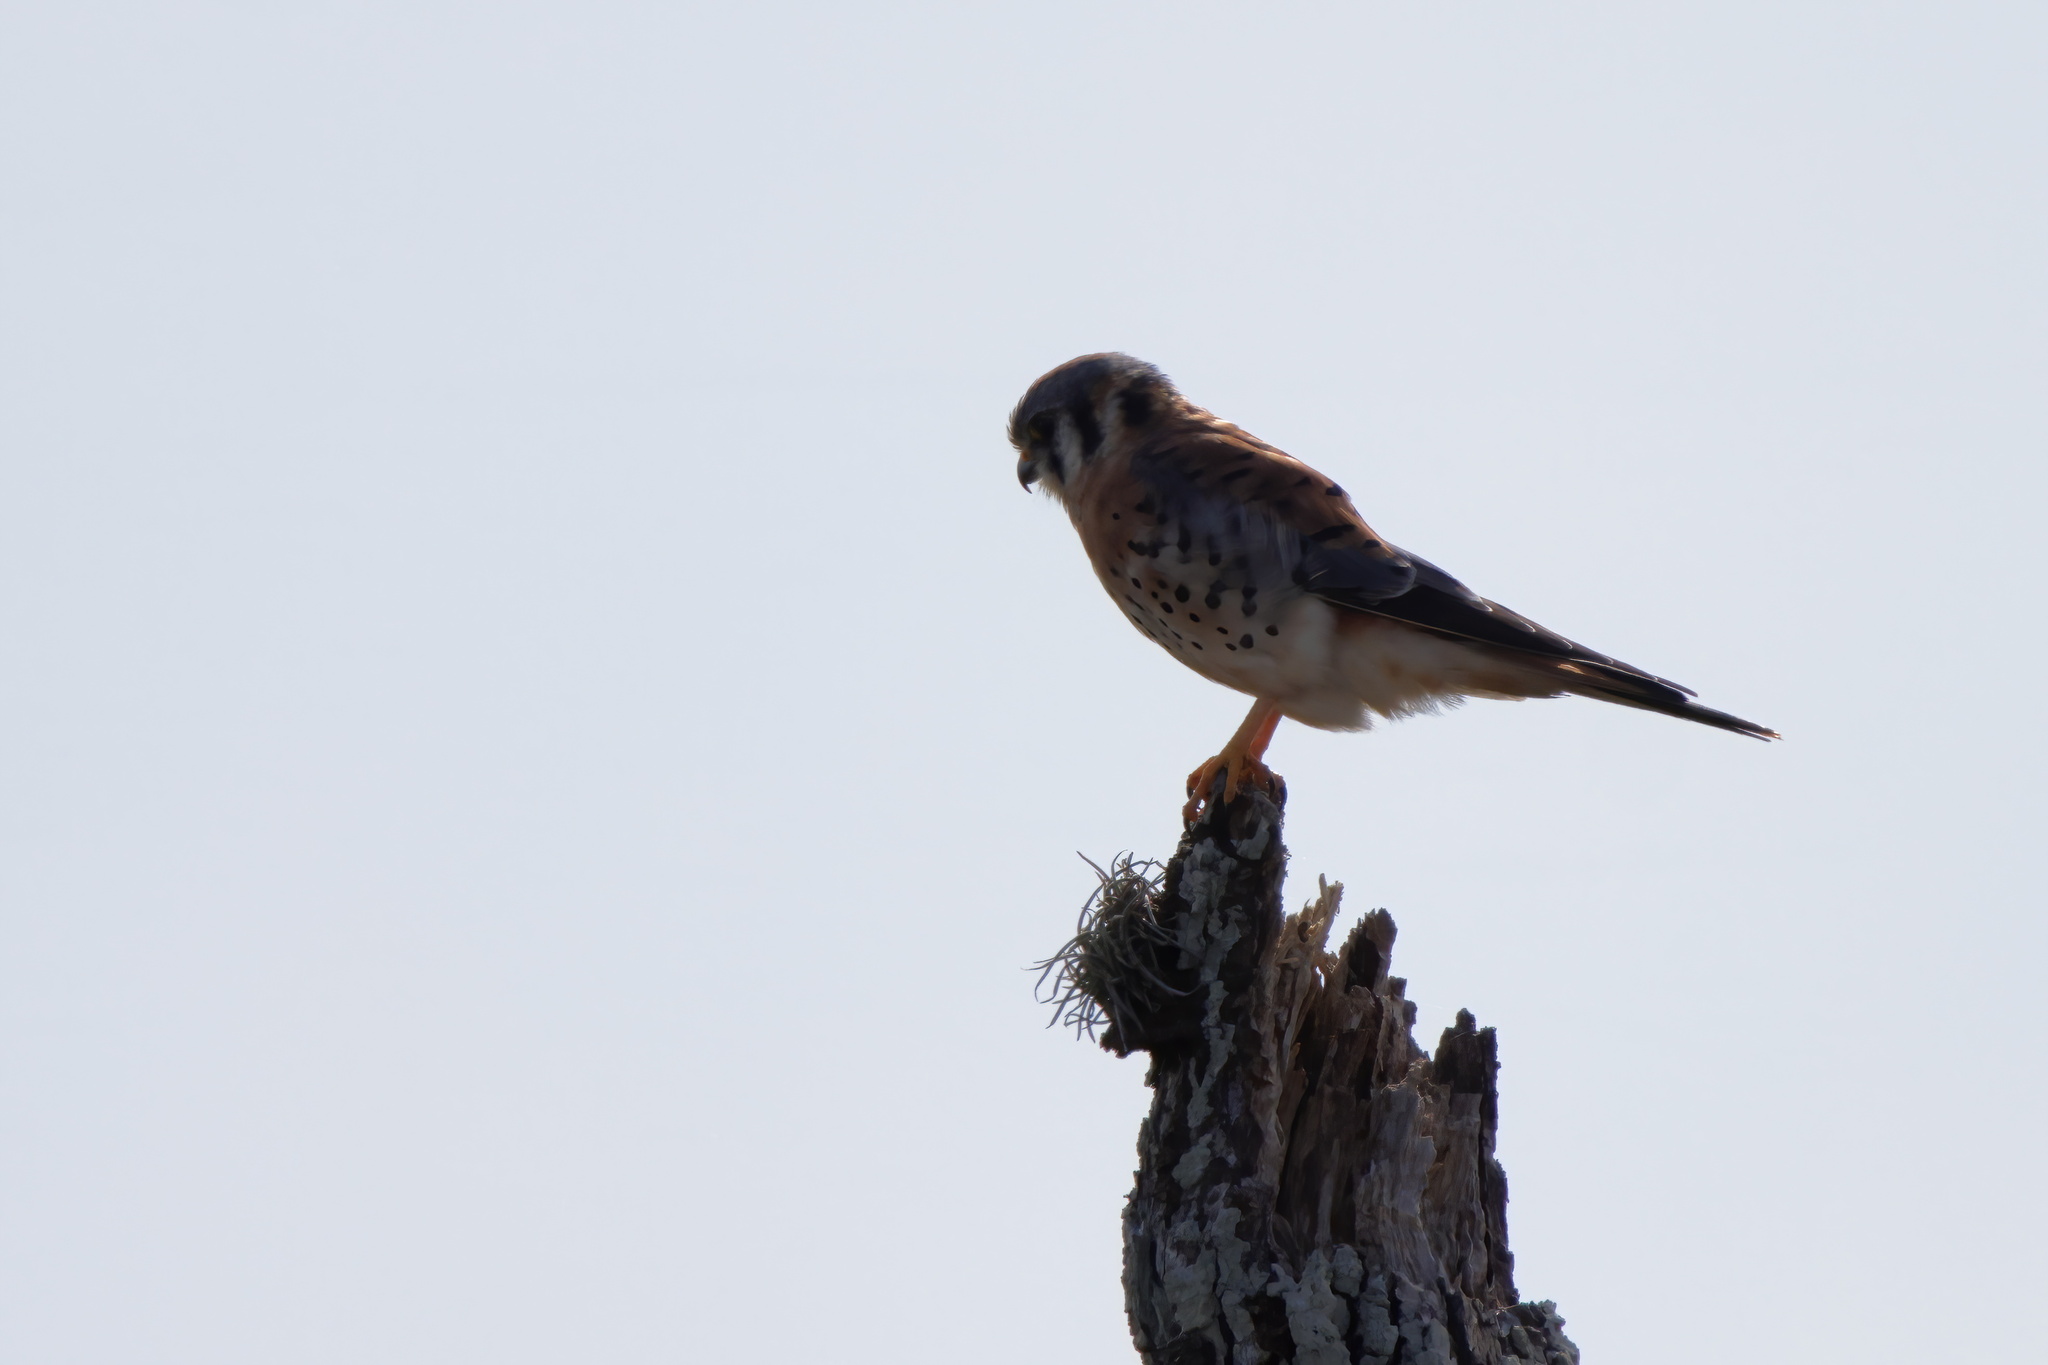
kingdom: Animalia
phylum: Chordata
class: Aves
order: Falconiformes
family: Falconidae
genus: Falco
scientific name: Falco sparverius
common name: American kestrel
